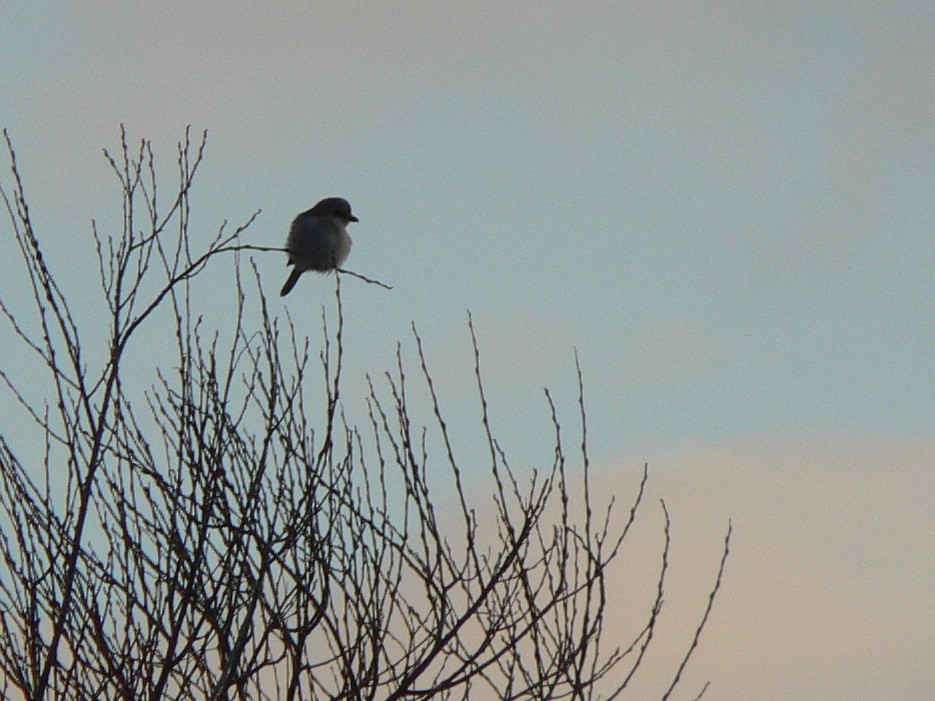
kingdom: Animalia
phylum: Chordata
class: Aves
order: Passeriformes
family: Laniidae
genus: Lanius
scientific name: Lanius borealis
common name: Northern shrike
